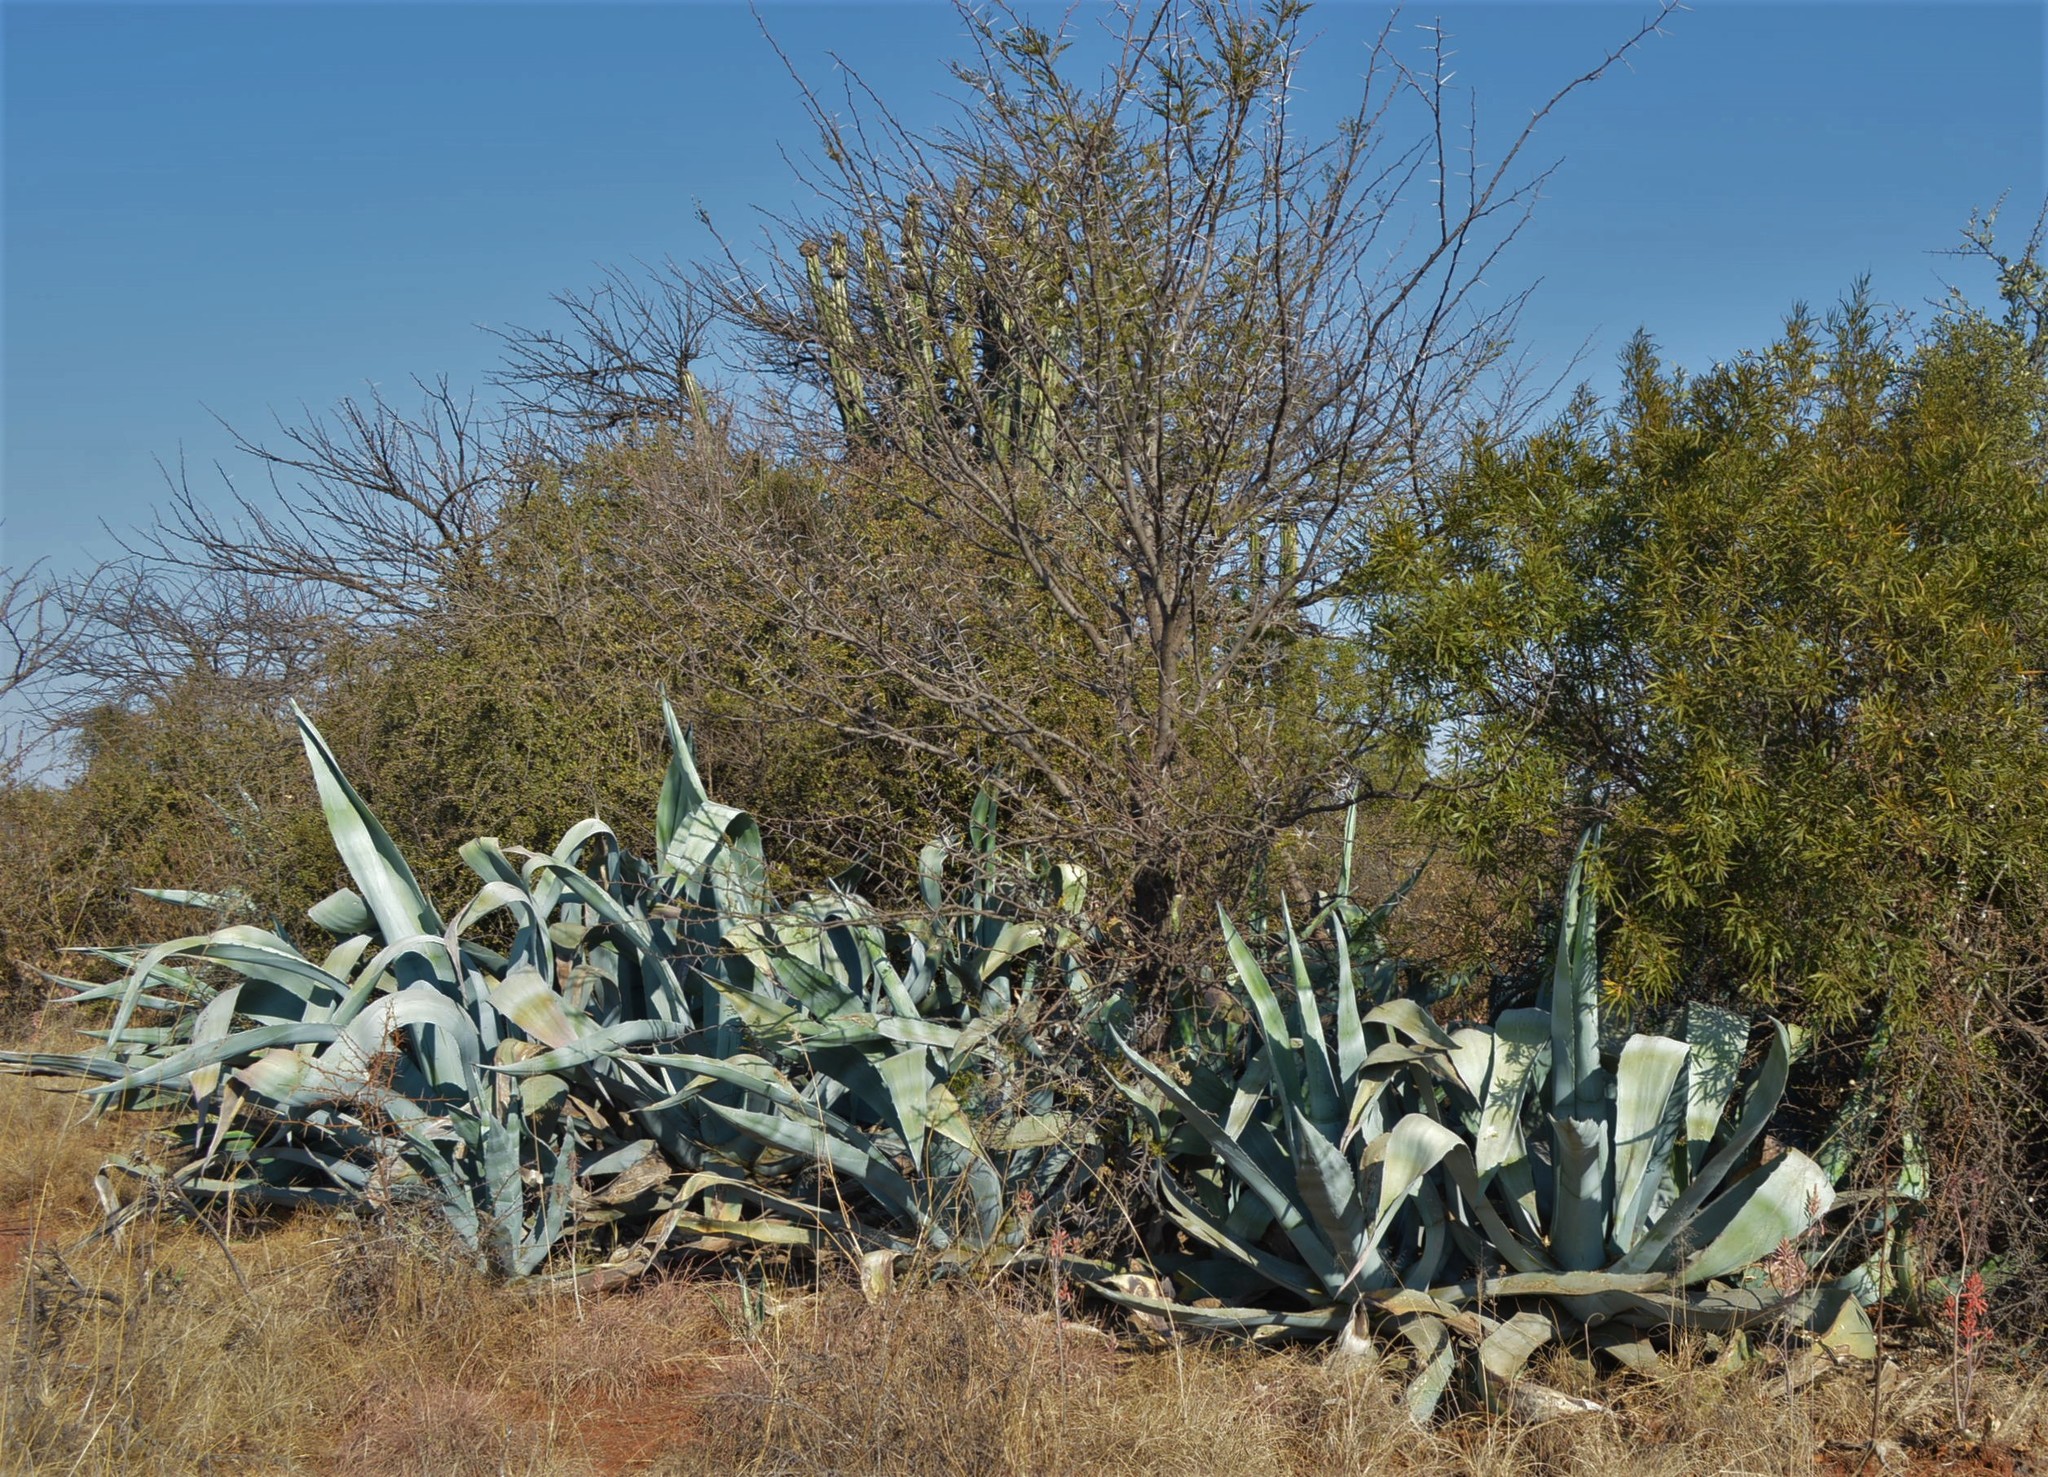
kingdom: Plantae
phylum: Tracheophyta
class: Liliopsida
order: Asparagales
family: Asparagaceae
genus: Agave
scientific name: Agave americana
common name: Centuryplant
